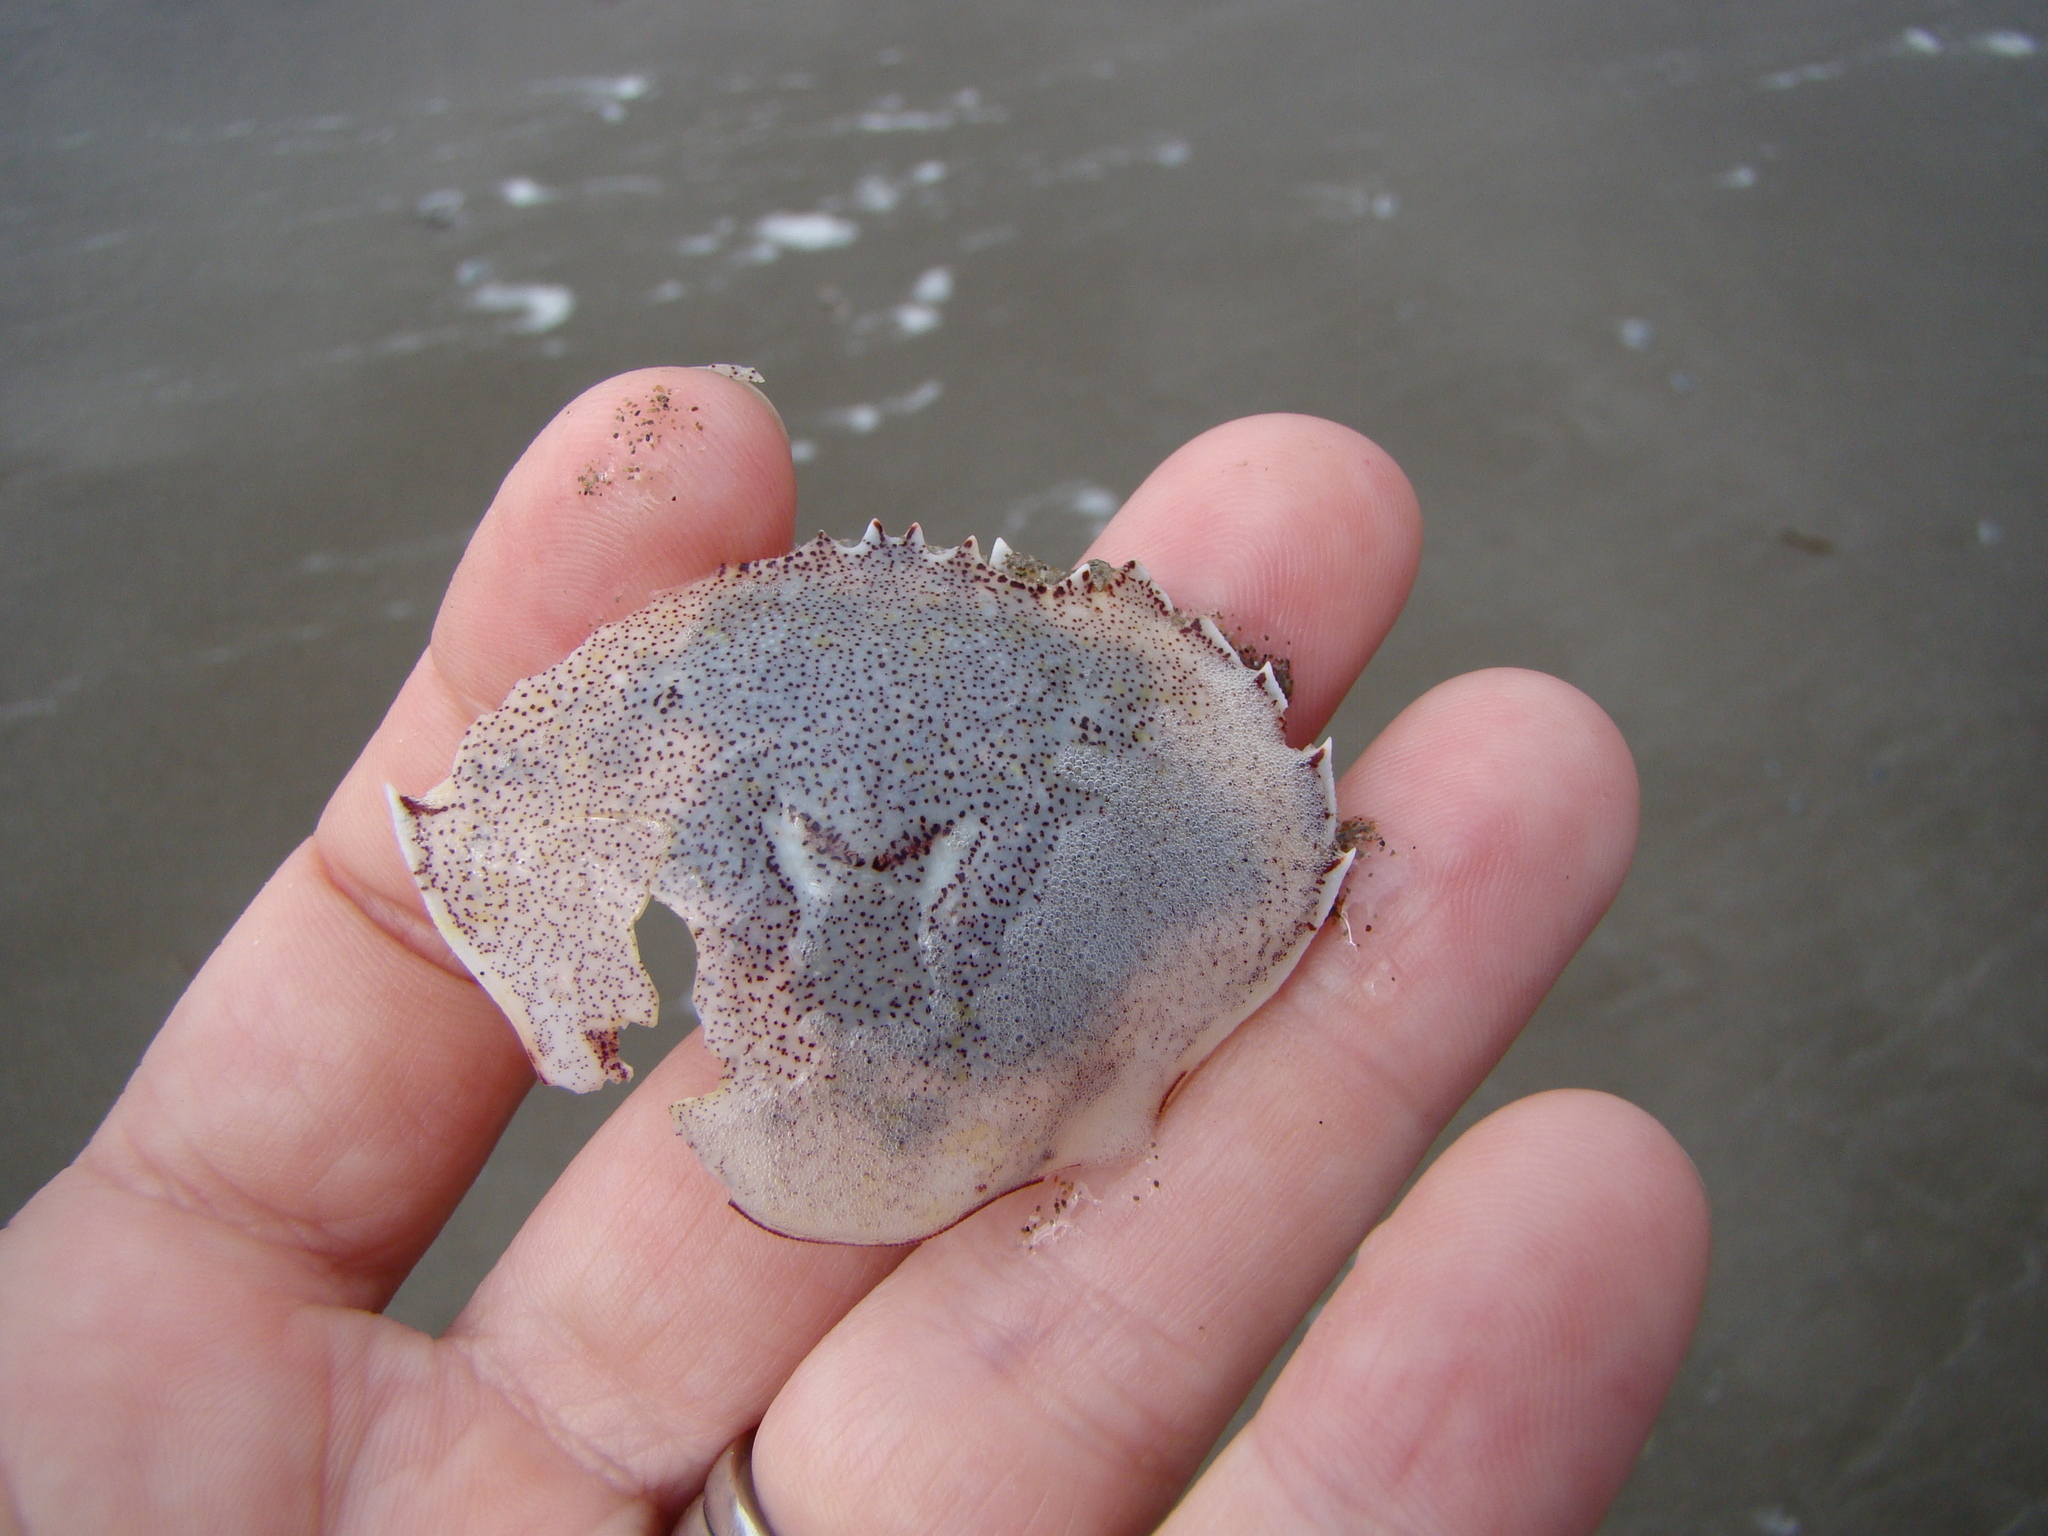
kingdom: Animalia
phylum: Arthropoda
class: Malacostraca
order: Decapoda
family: Ovalipidae
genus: Ovalipes
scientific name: Ovalipes catharus
